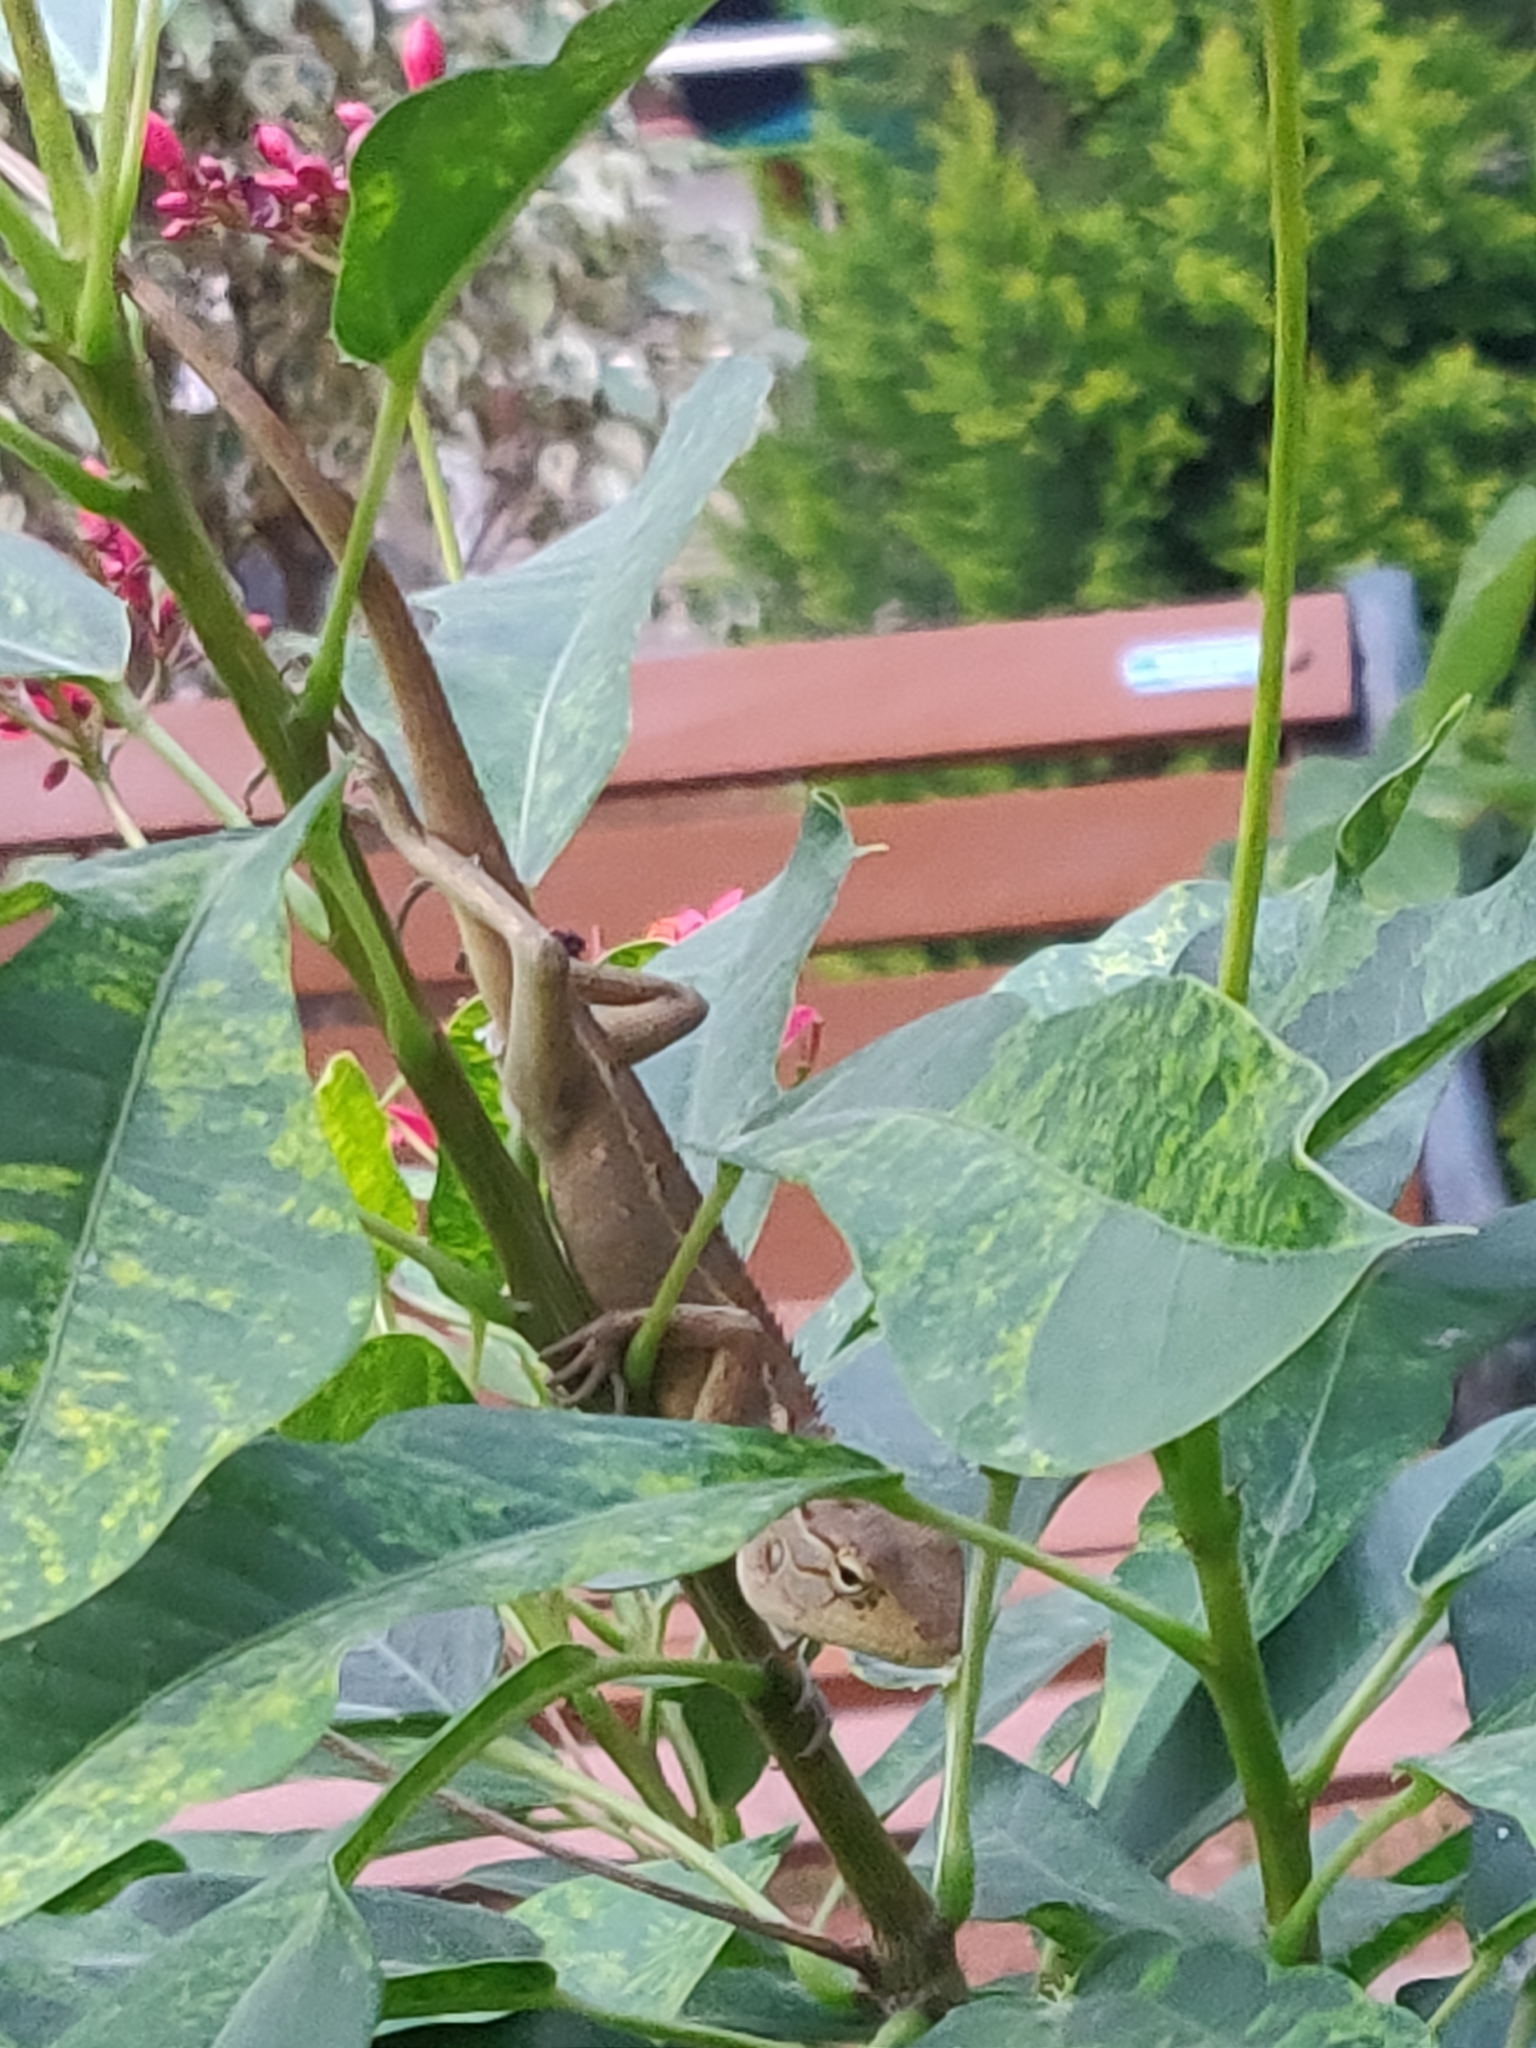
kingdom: Animalia
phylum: Chordata
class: Squamata
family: Agamidae
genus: Calotes
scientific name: Calotes versicolor
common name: Oriental garden lizard
